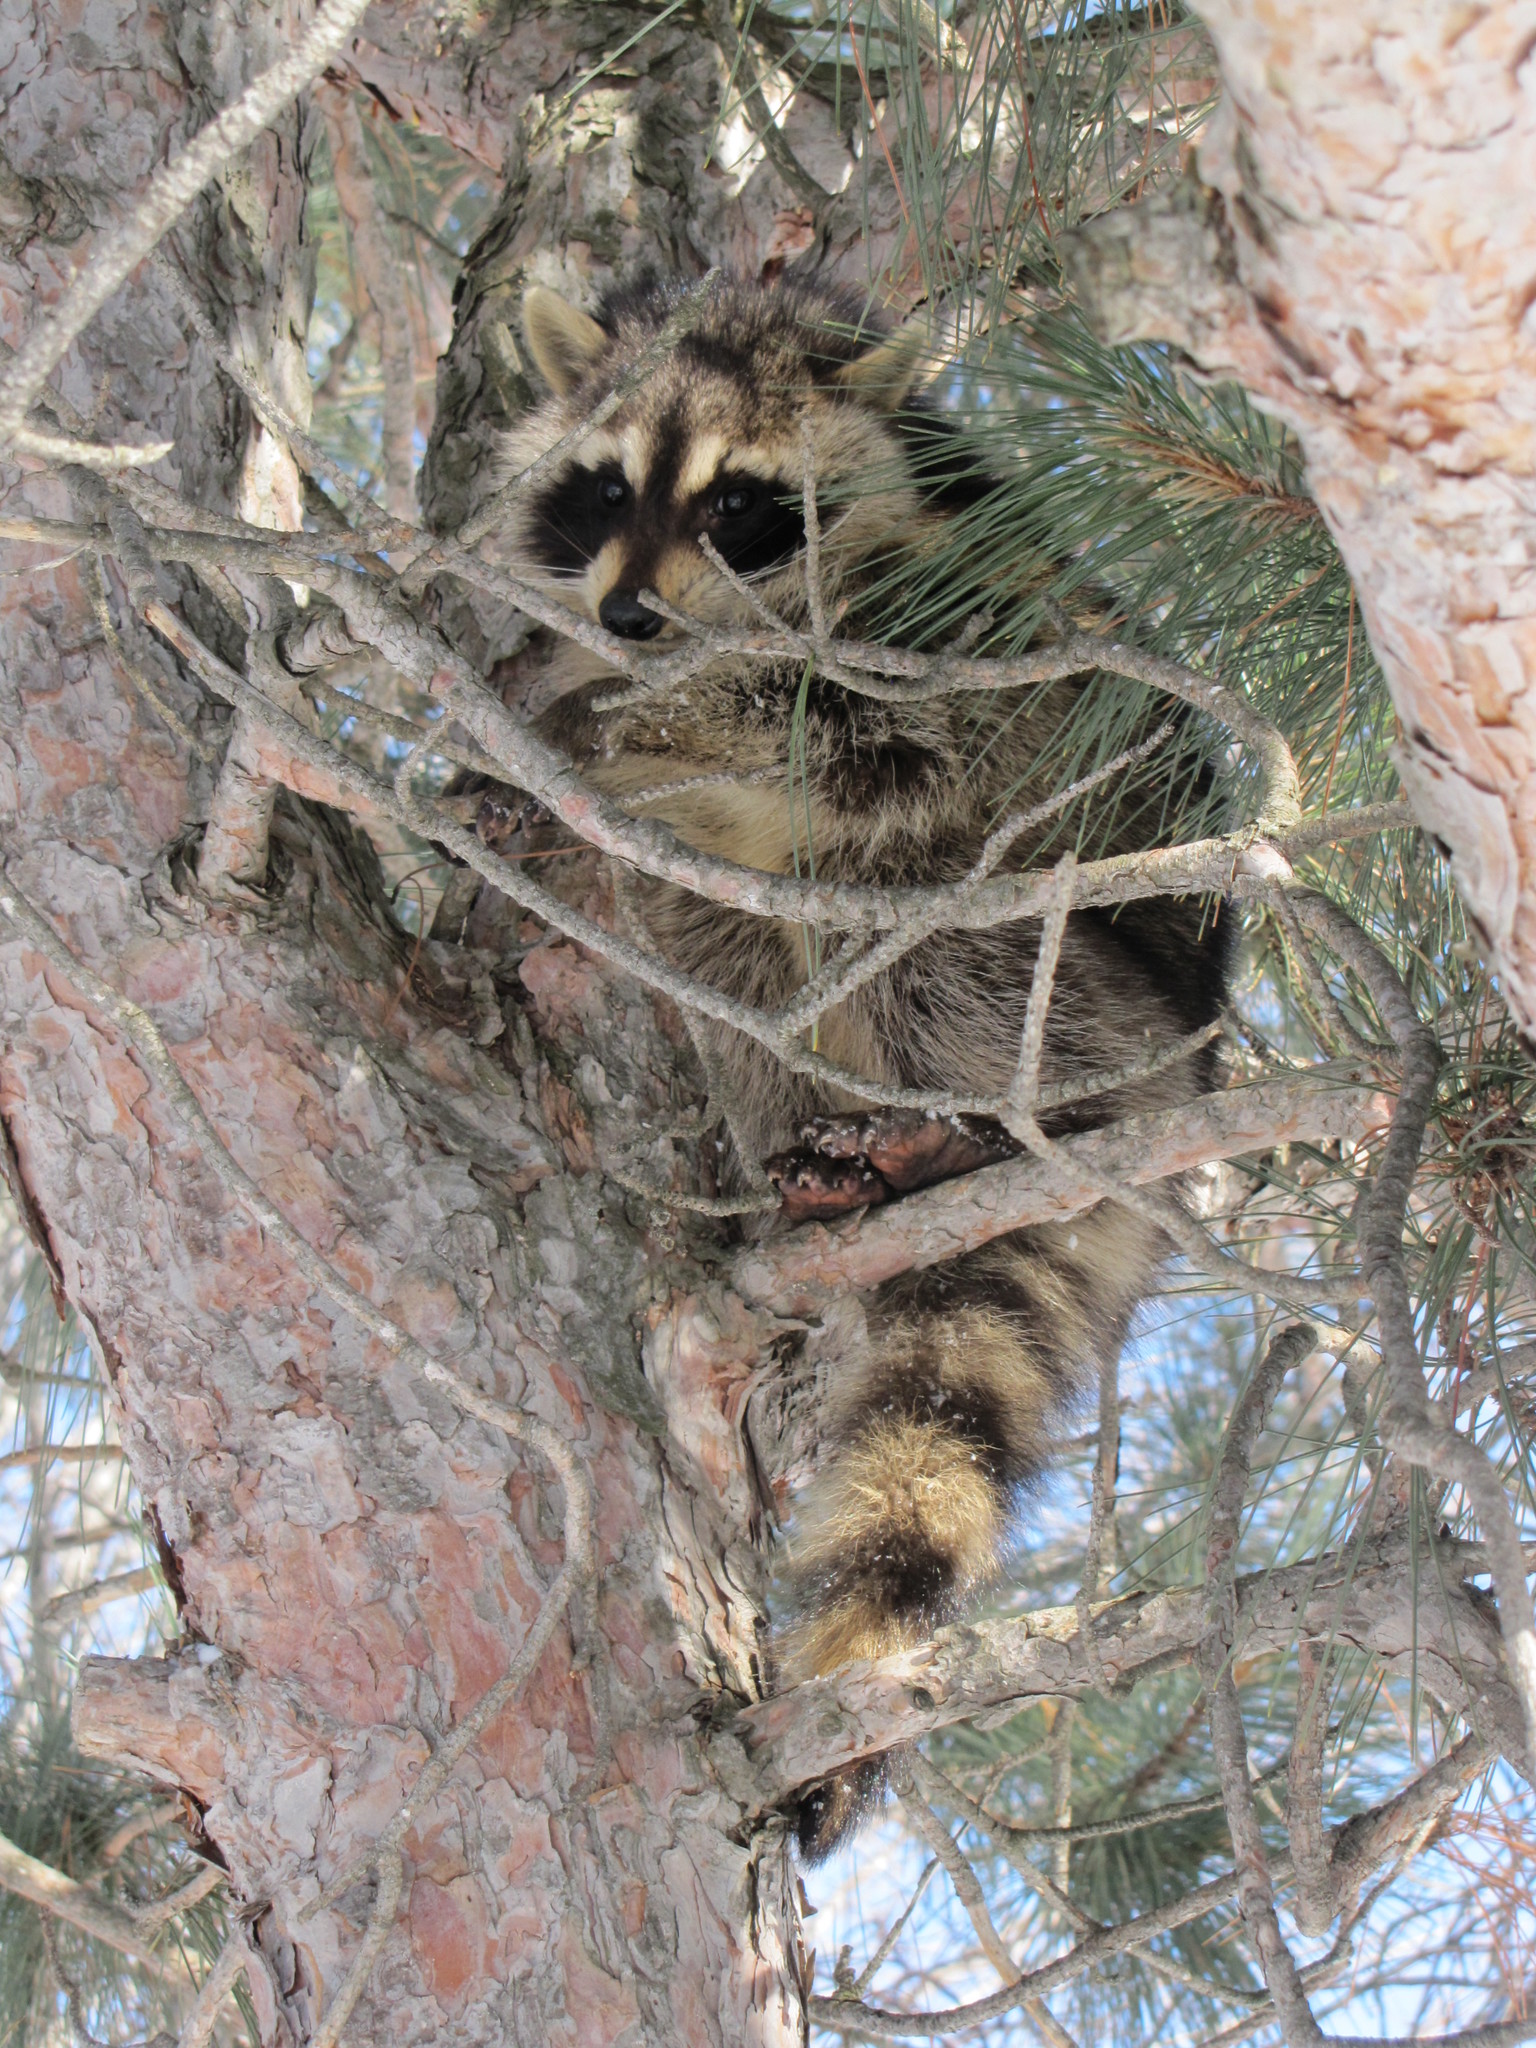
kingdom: Animalia
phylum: Chordata
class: Mammalia
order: Carnivora
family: Procyonidae
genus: Procyon
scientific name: Procyon lotor
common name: Raccoon
